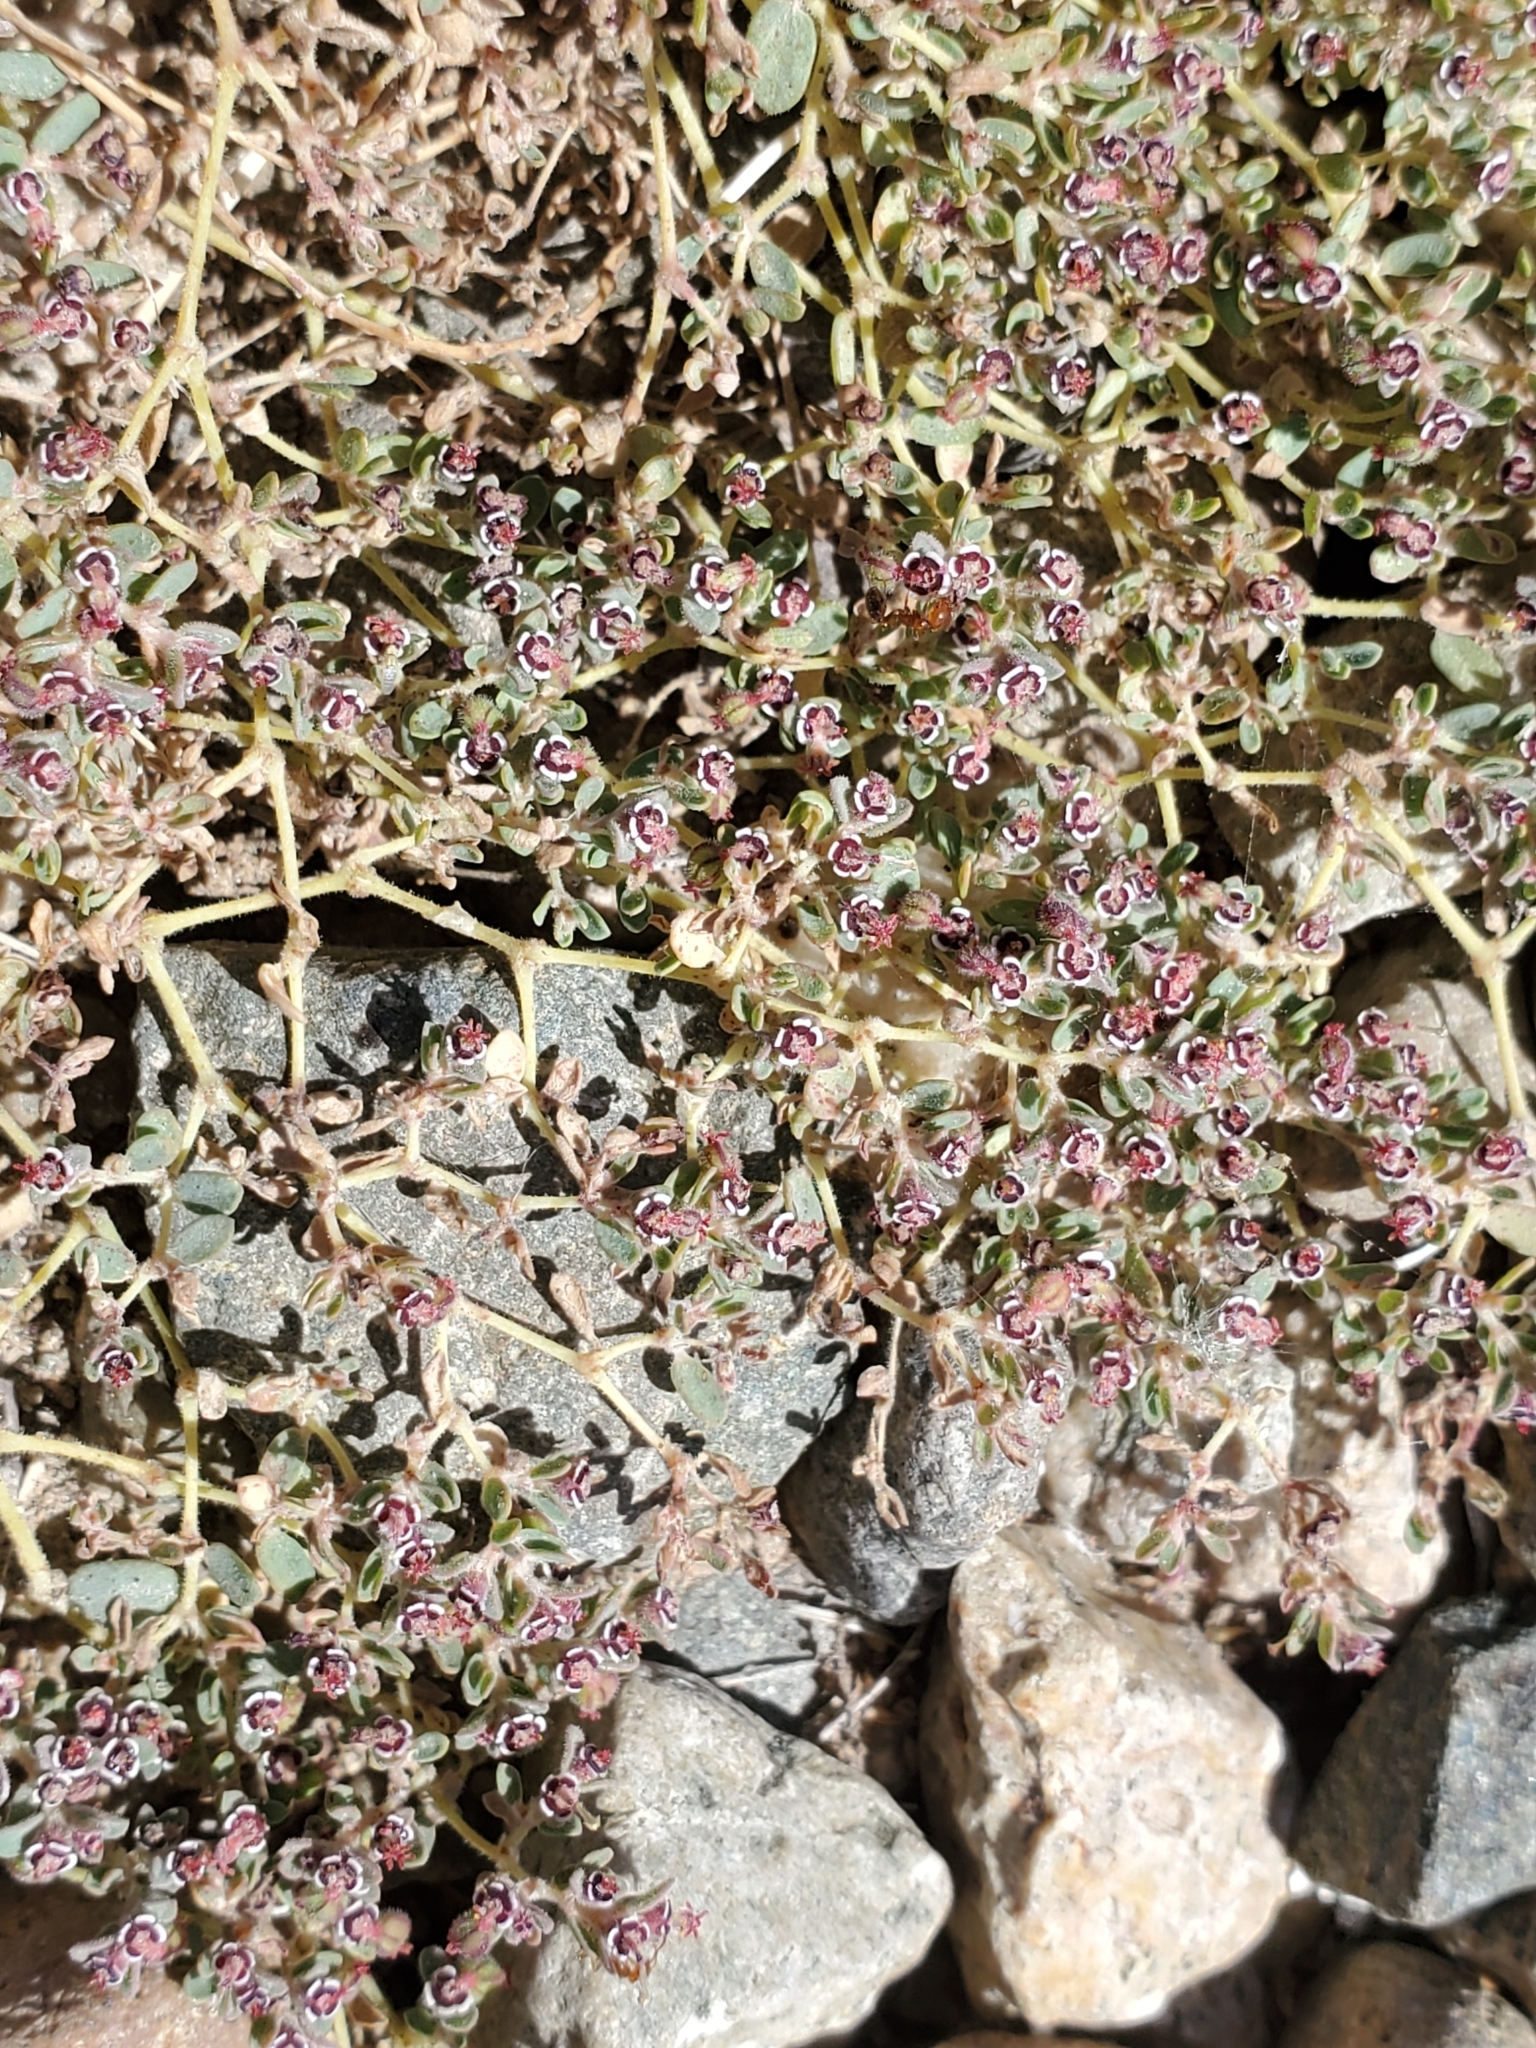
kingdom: Plantae
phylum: Tracheophyta
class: Magnoliopsida
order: Malpighiales
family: Euphorbiaceae
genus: Euphorbia
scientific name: Euphorbia polycarpa
